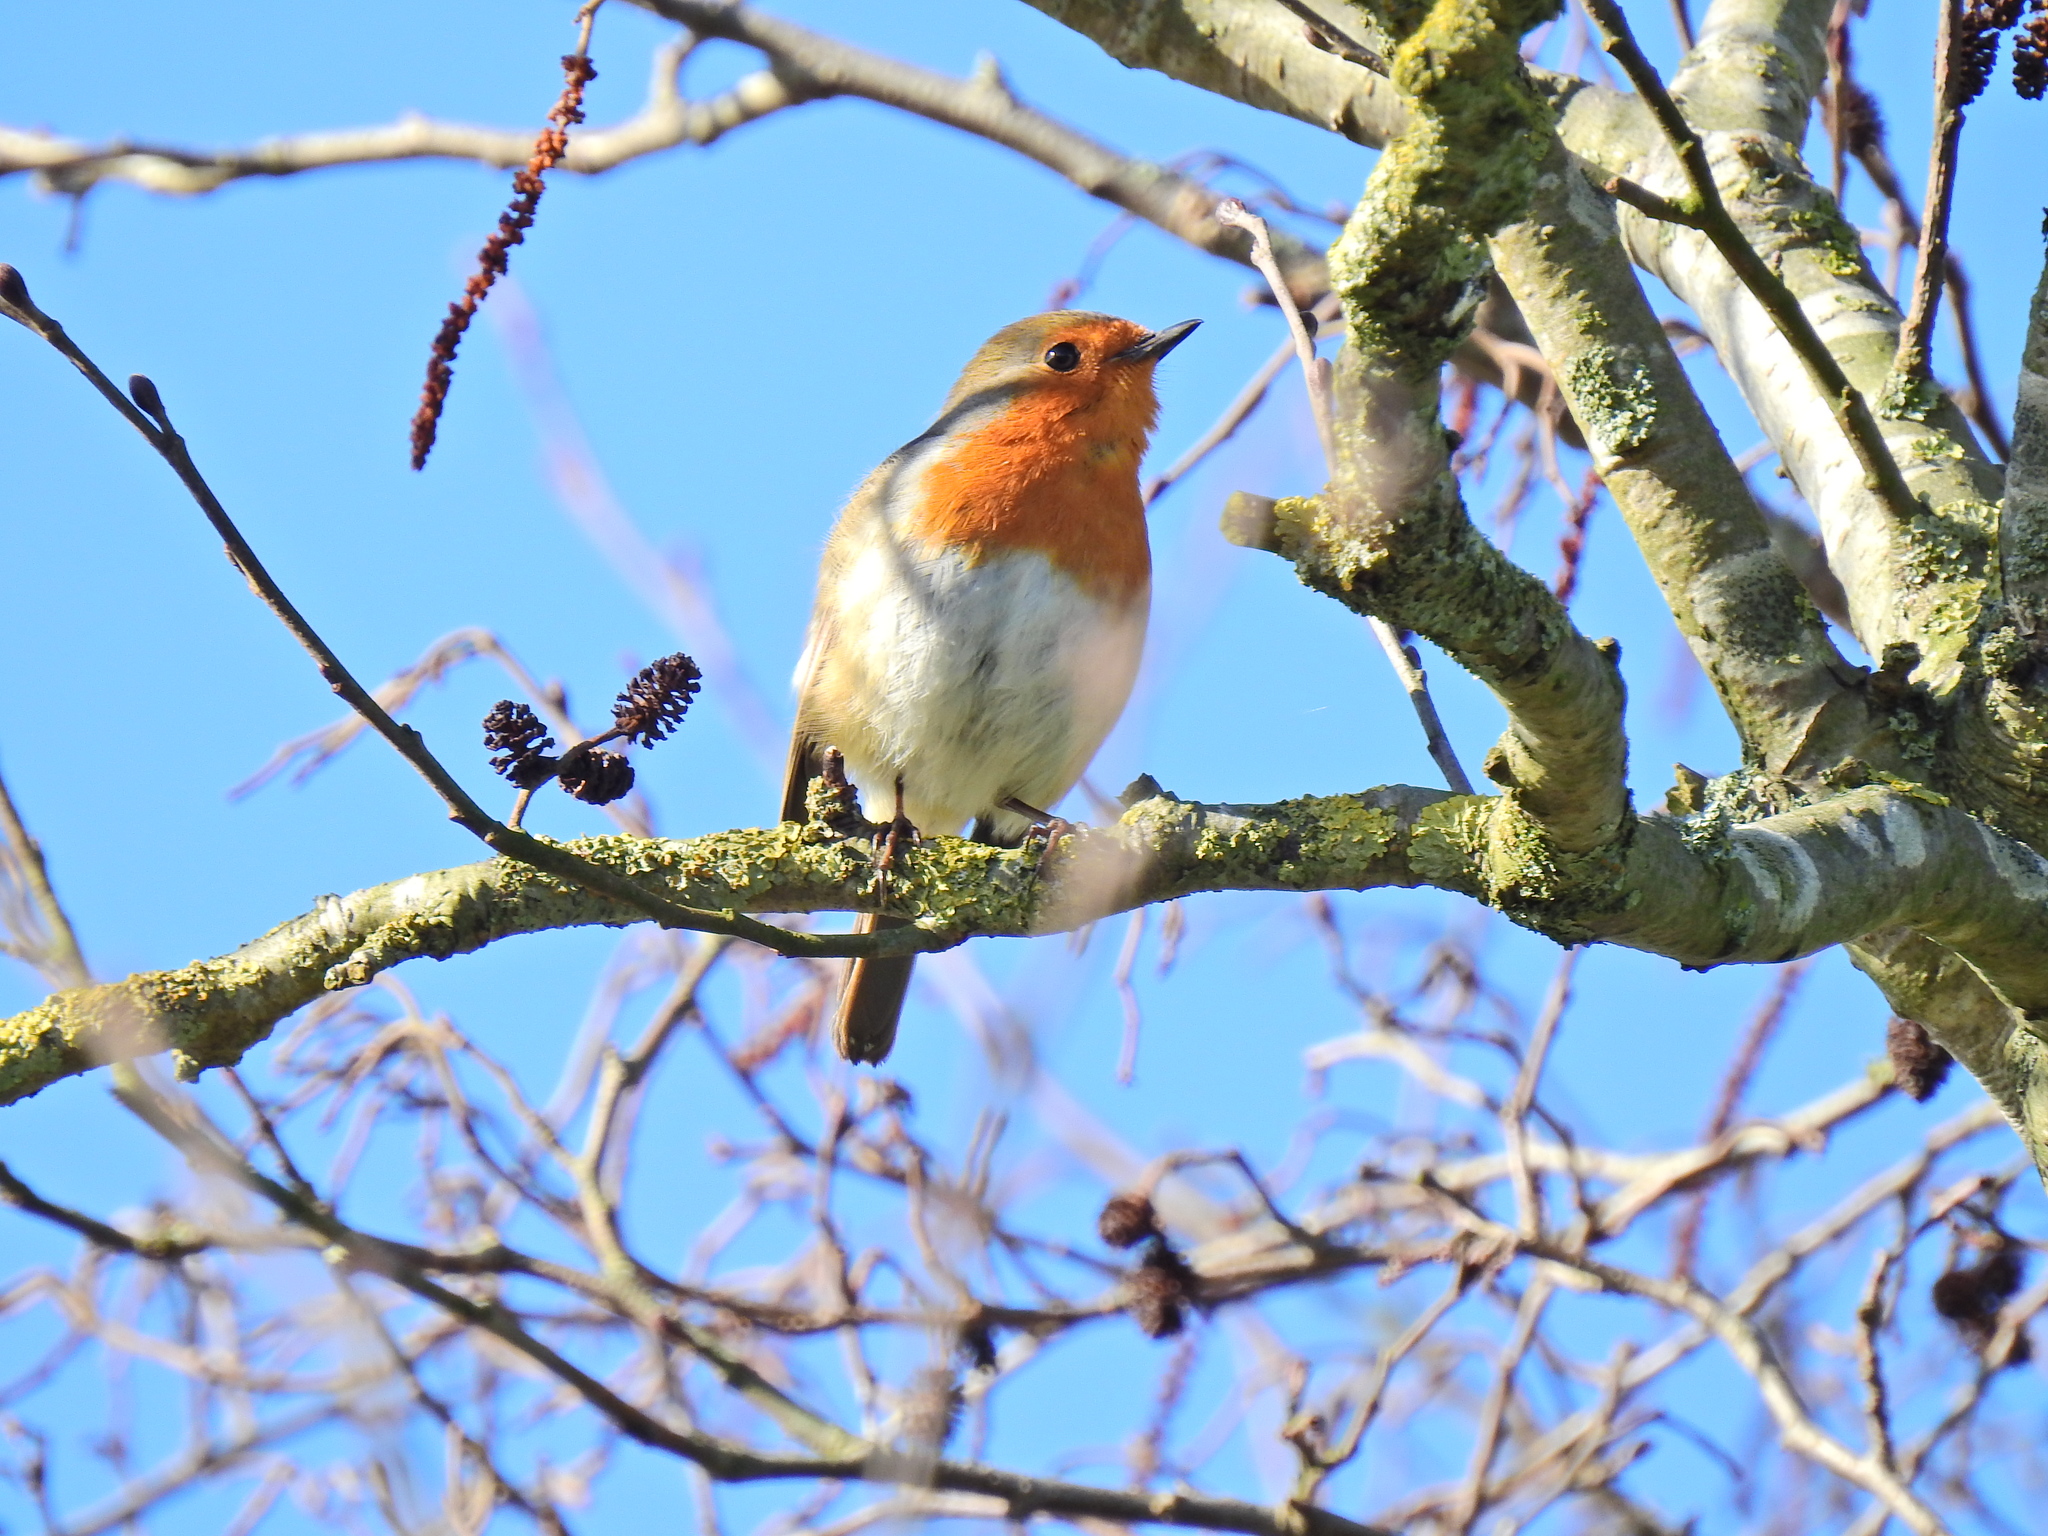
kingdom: Animalia
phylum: Chordata
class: Aves
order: Passeriformes
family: Muscicapidae
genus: Erithacus
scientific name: Erithacus rubecula
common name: European robin
